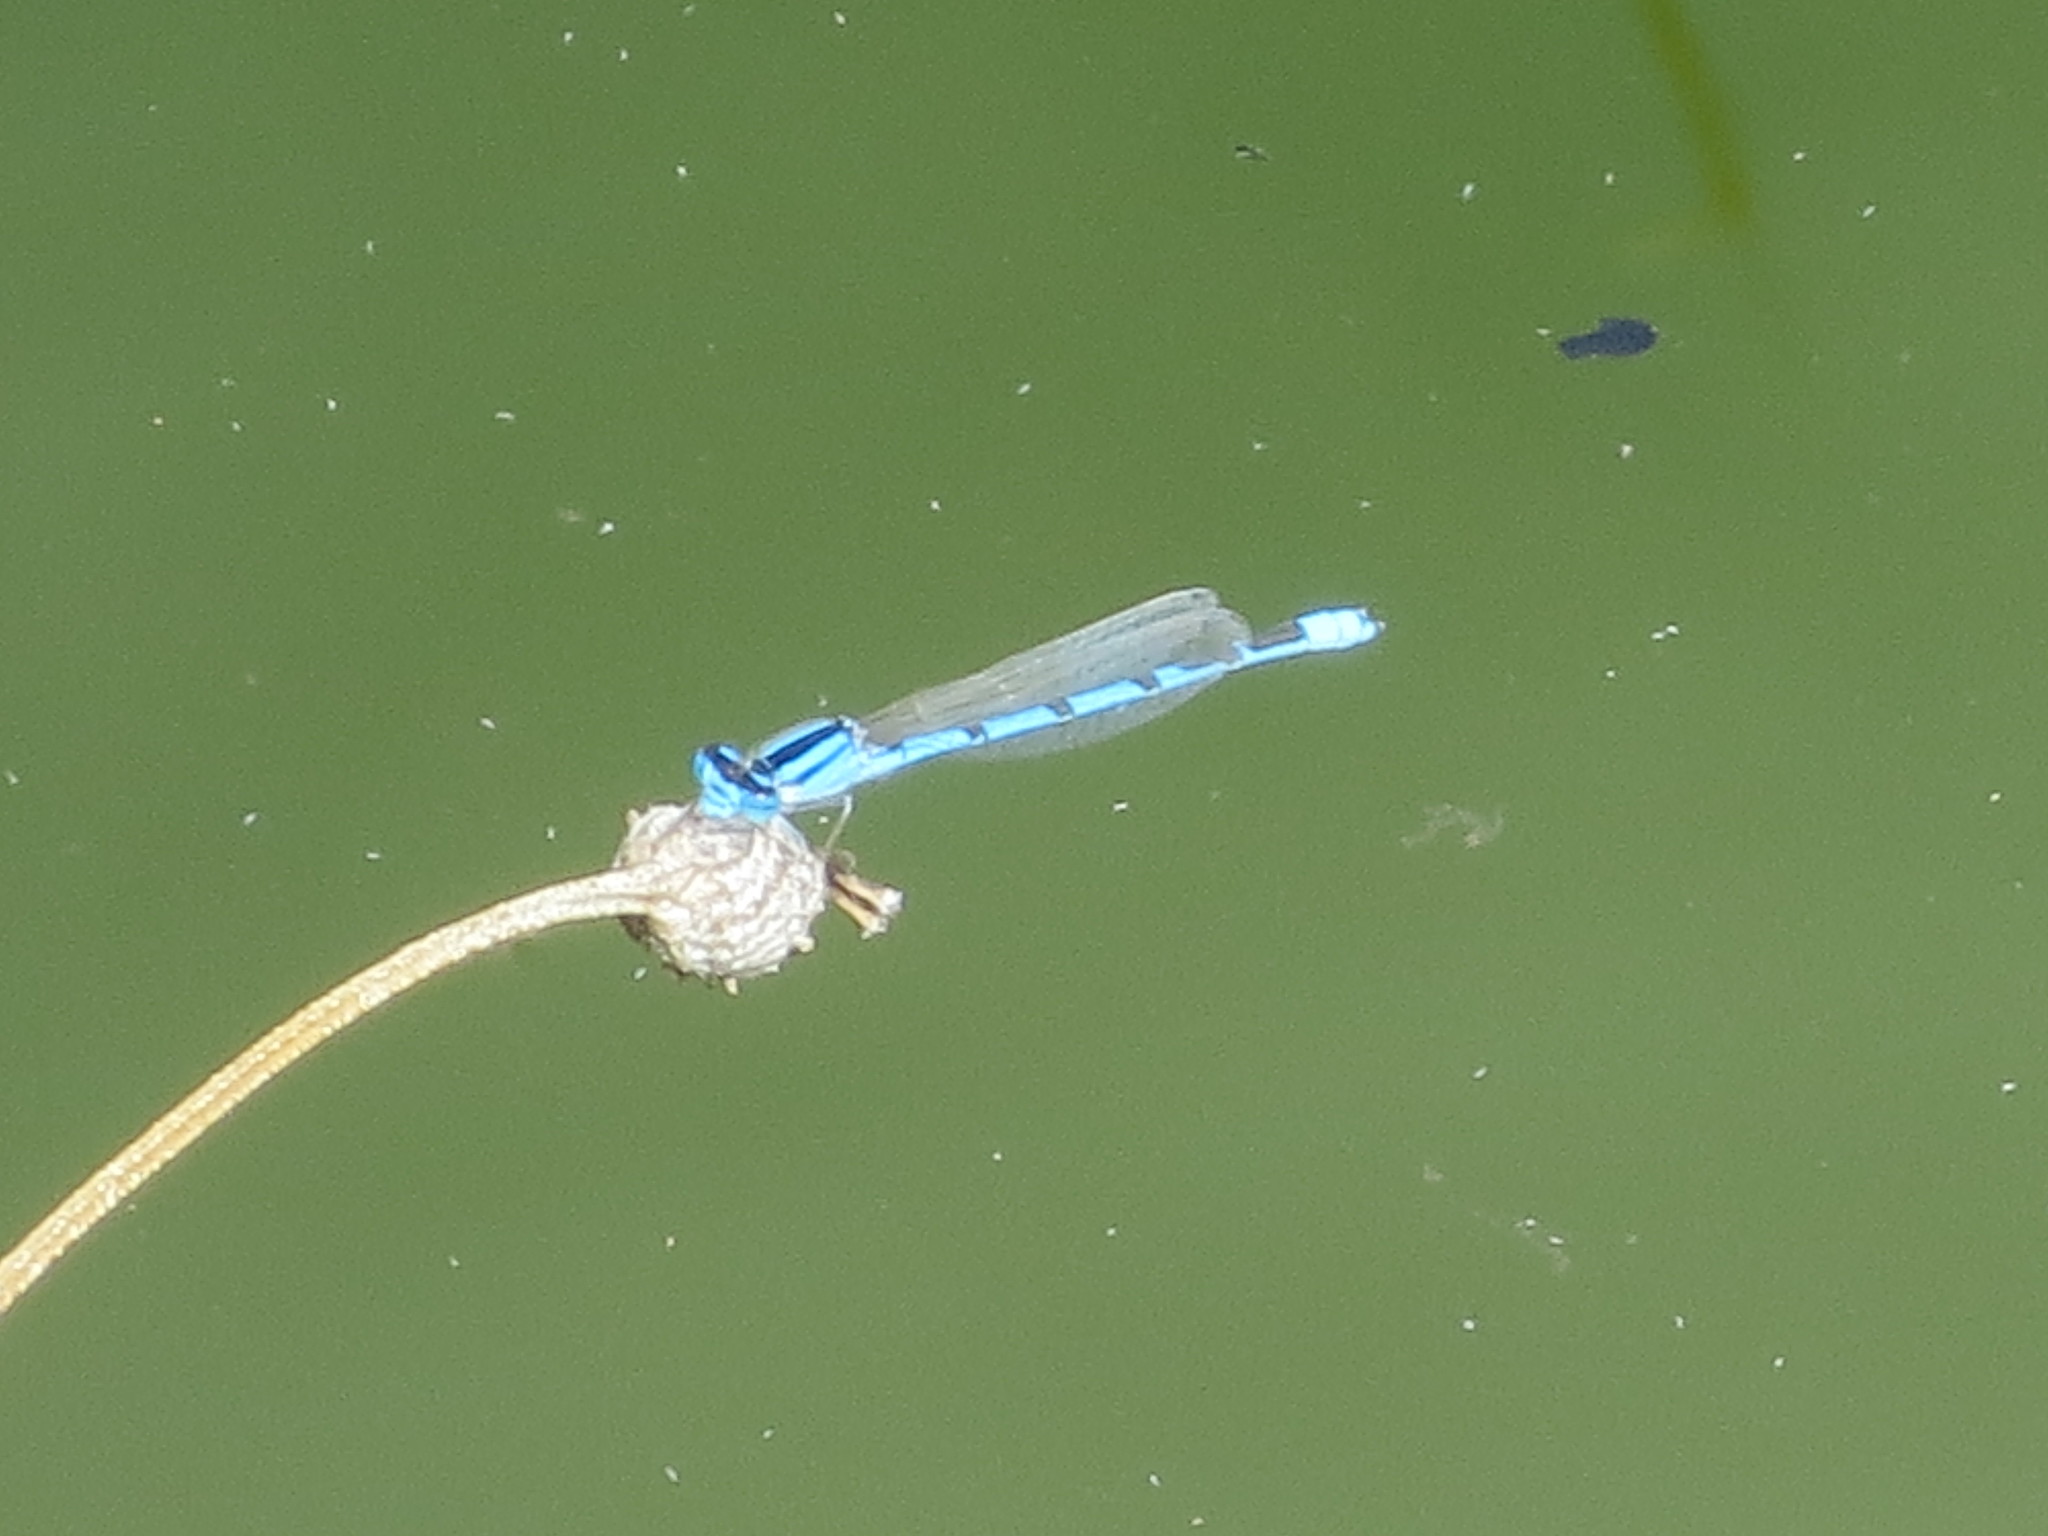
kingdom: Animalia
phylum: Arthropoda
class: Insecta
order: Odonata
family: Coenagrionidae
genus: Enallagma
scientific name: Enallagma civile
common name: Damselfly
